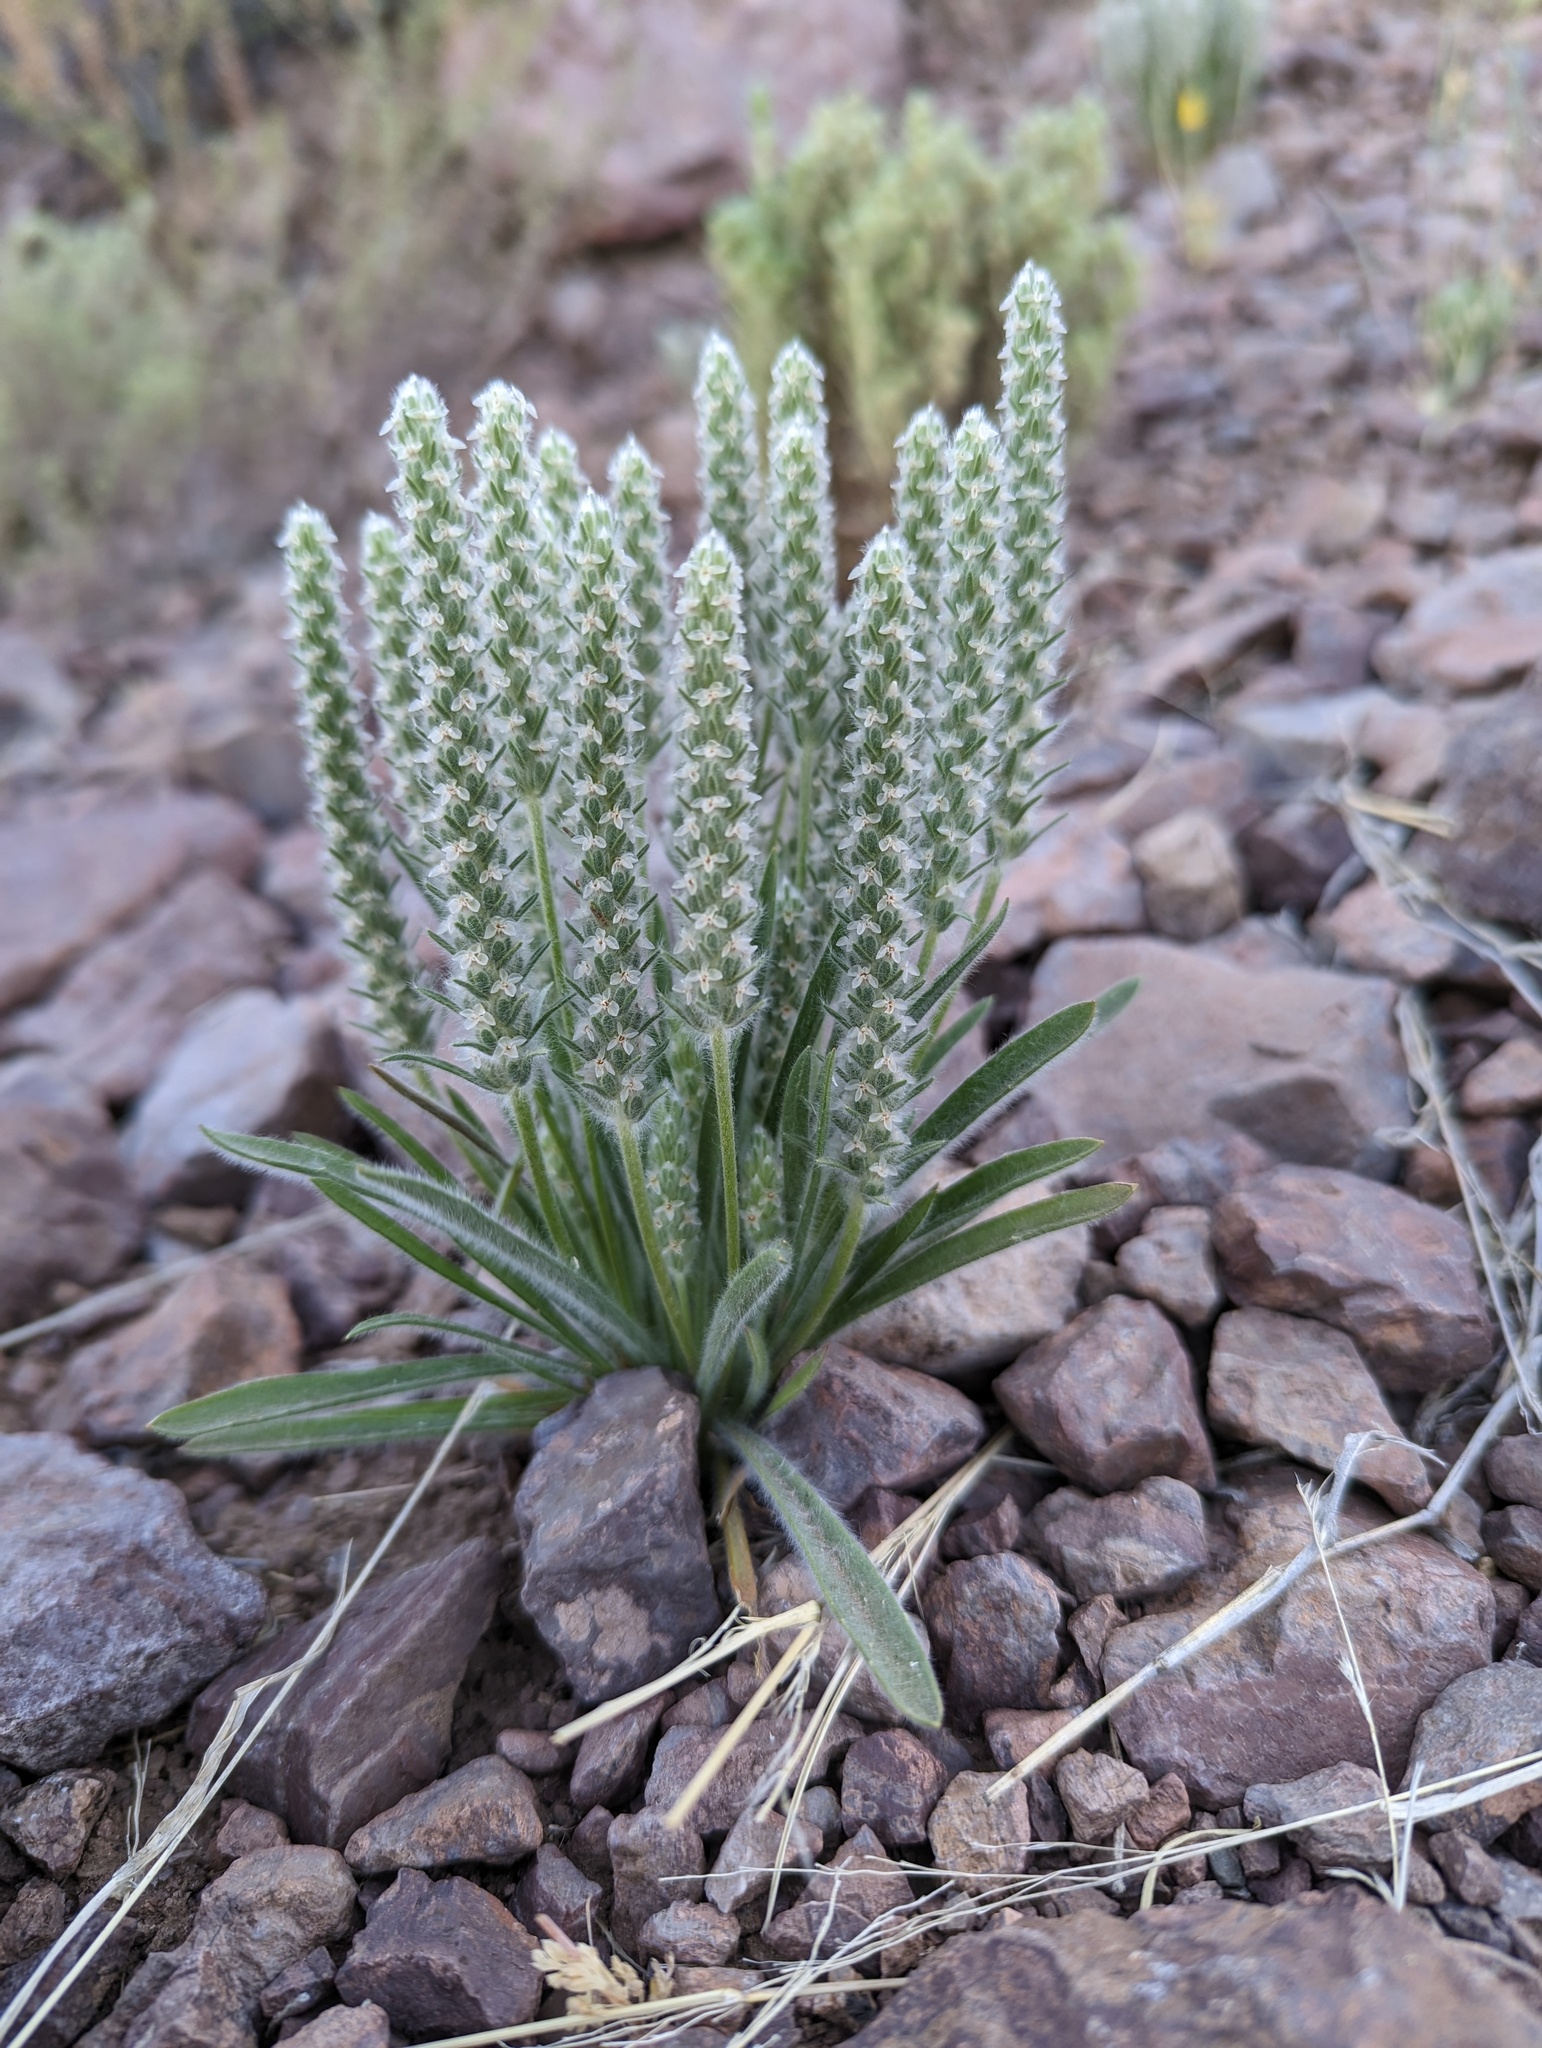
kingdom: Plantae
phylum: Tracheophyta
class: Magnoliopsida
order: Lamiales
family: Plantaginaceae
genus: Plantago
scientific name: Plantago patagonica
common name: Patagonia indian-wheat
